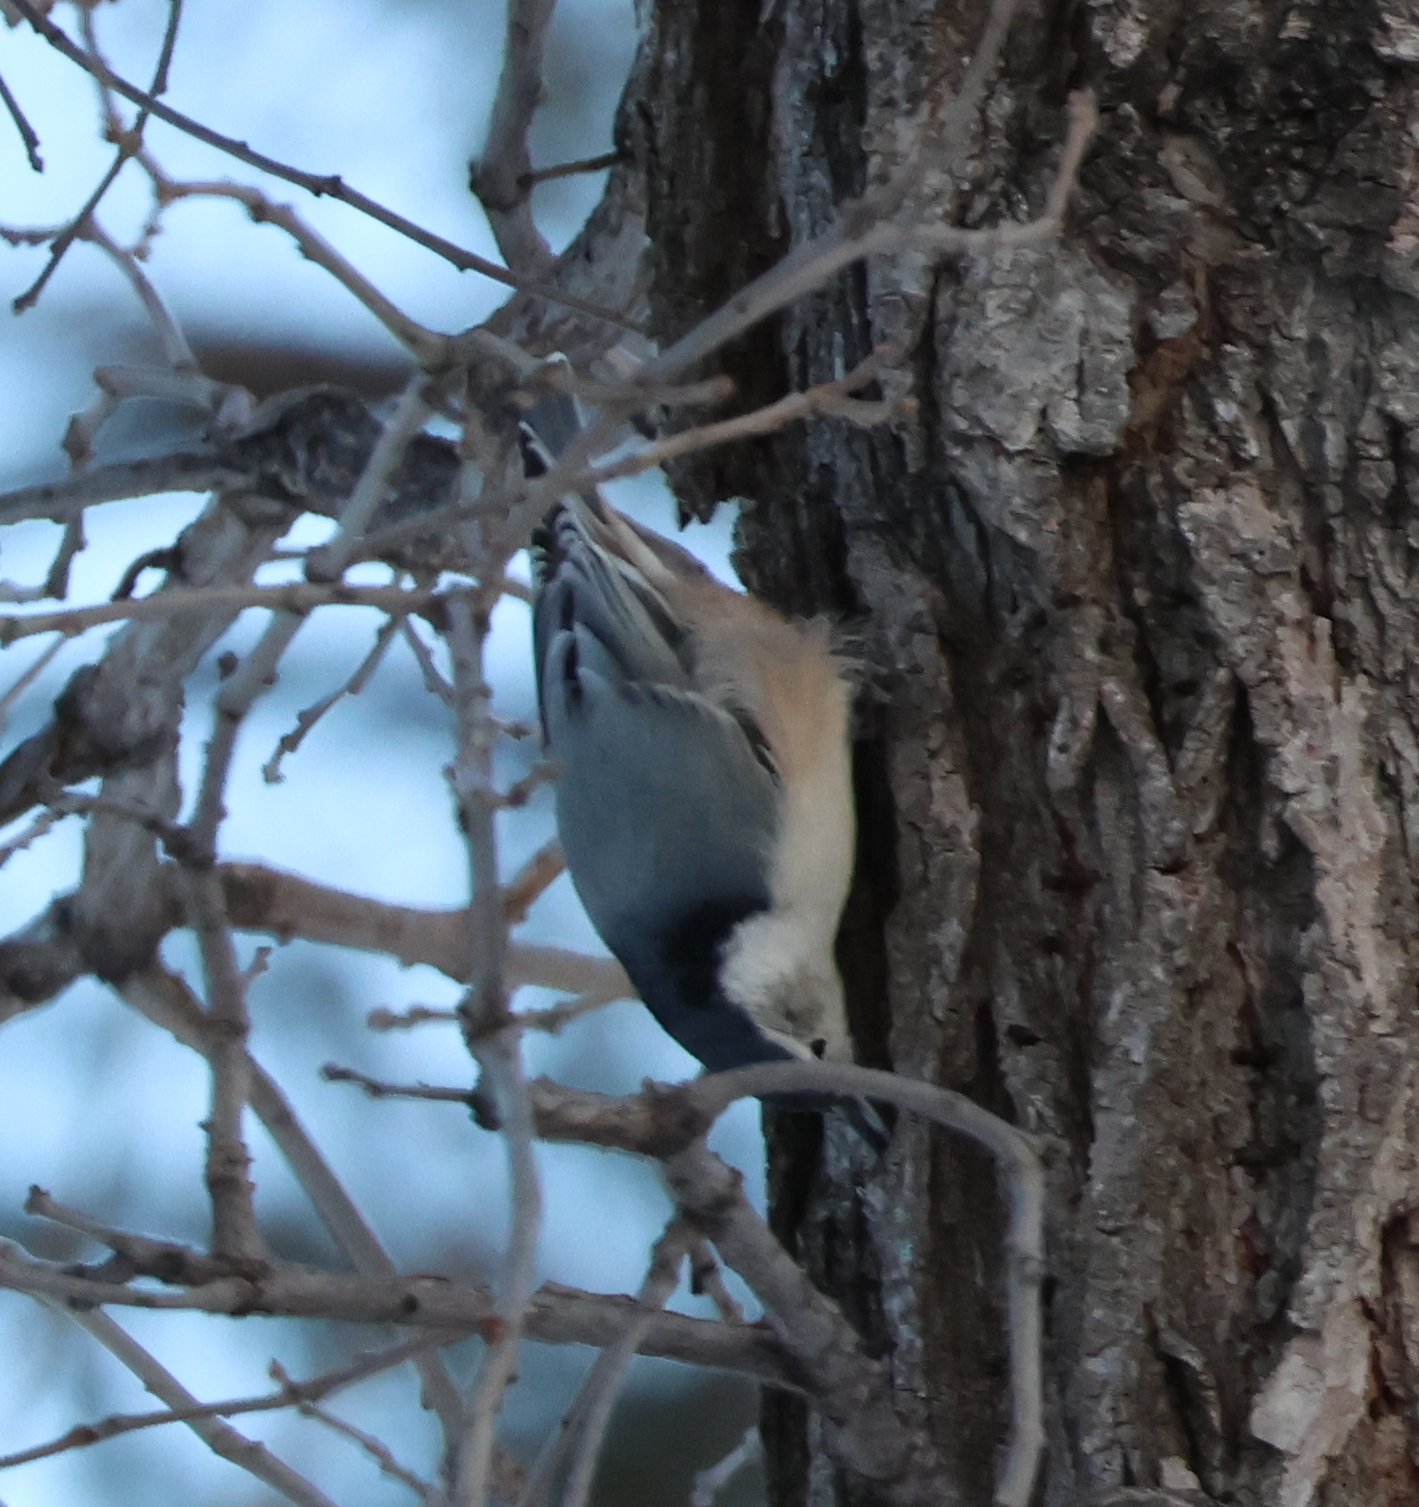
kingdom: Animalia
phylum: Chordata
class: Aves
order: Passeriformes
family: Sittidae
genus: Sitta
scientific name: Sitta carolinensis
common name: White-breasted nuthatch
